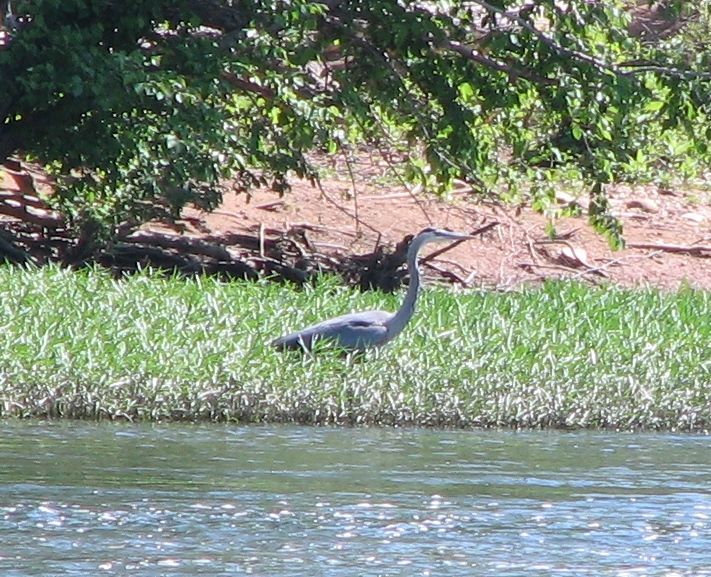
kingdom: Animalia
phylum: Chordata
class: Aves
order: Pelecaniformes
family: Ardeidae
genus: Ardea
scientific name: Ardea herodias
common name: Great blue heron
